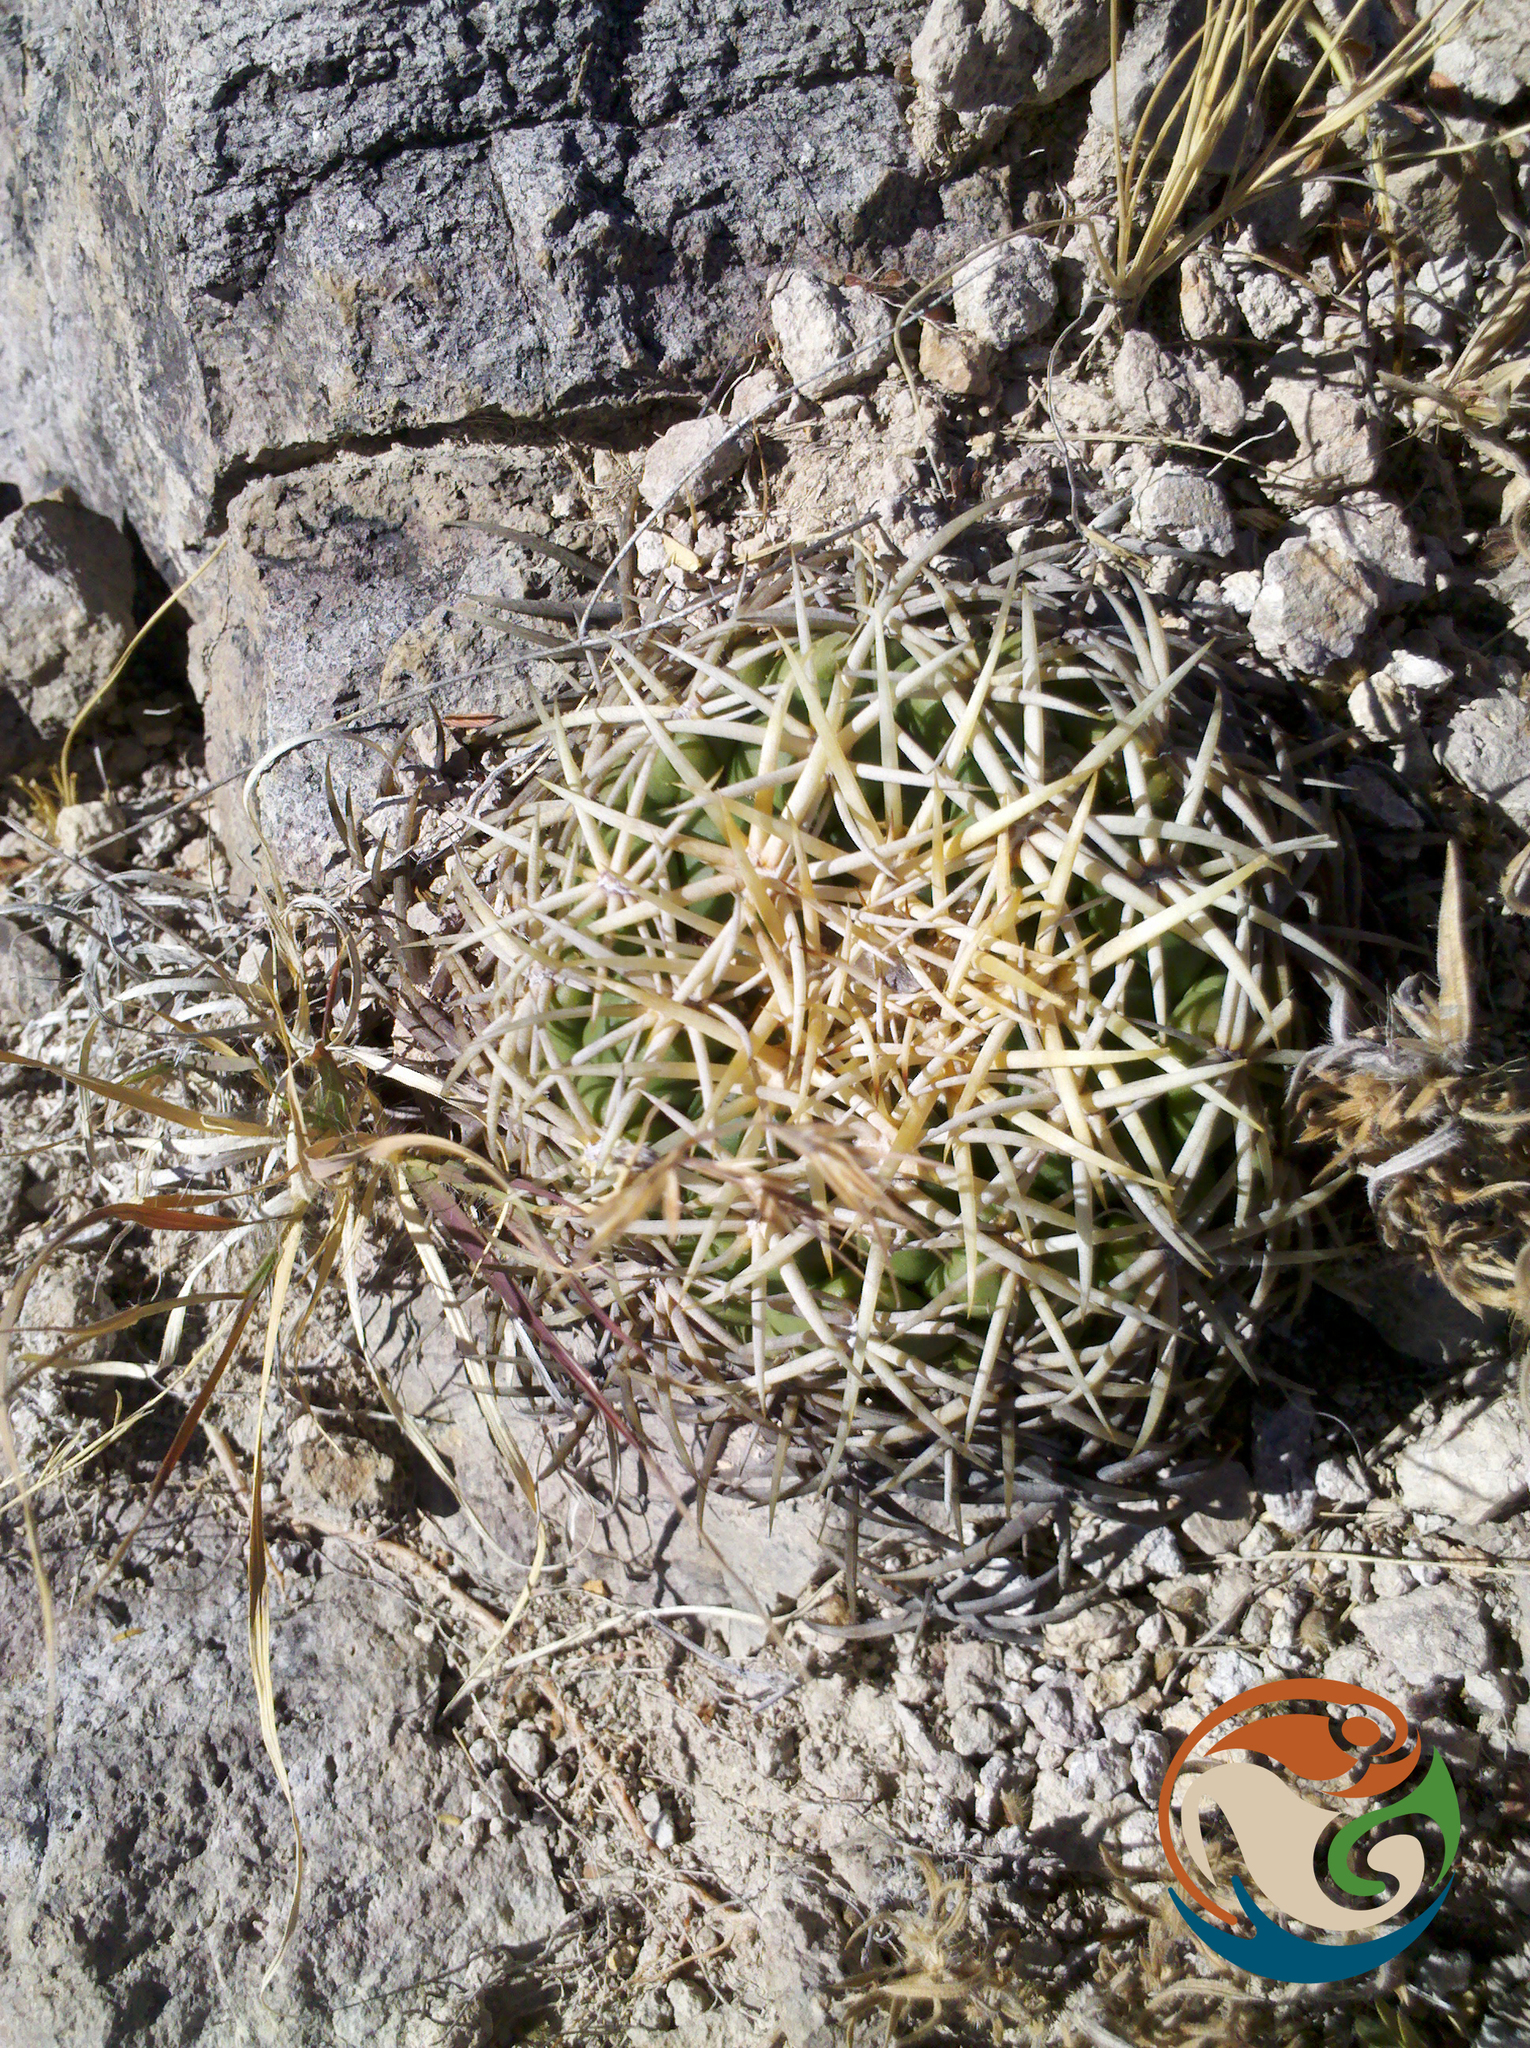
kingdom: Plantae
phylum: Tracheophyta
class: Magnoliopsida
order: Caryophyllales
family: Cactaceae
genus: Coryphantha
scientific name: Coryphantha retusa
